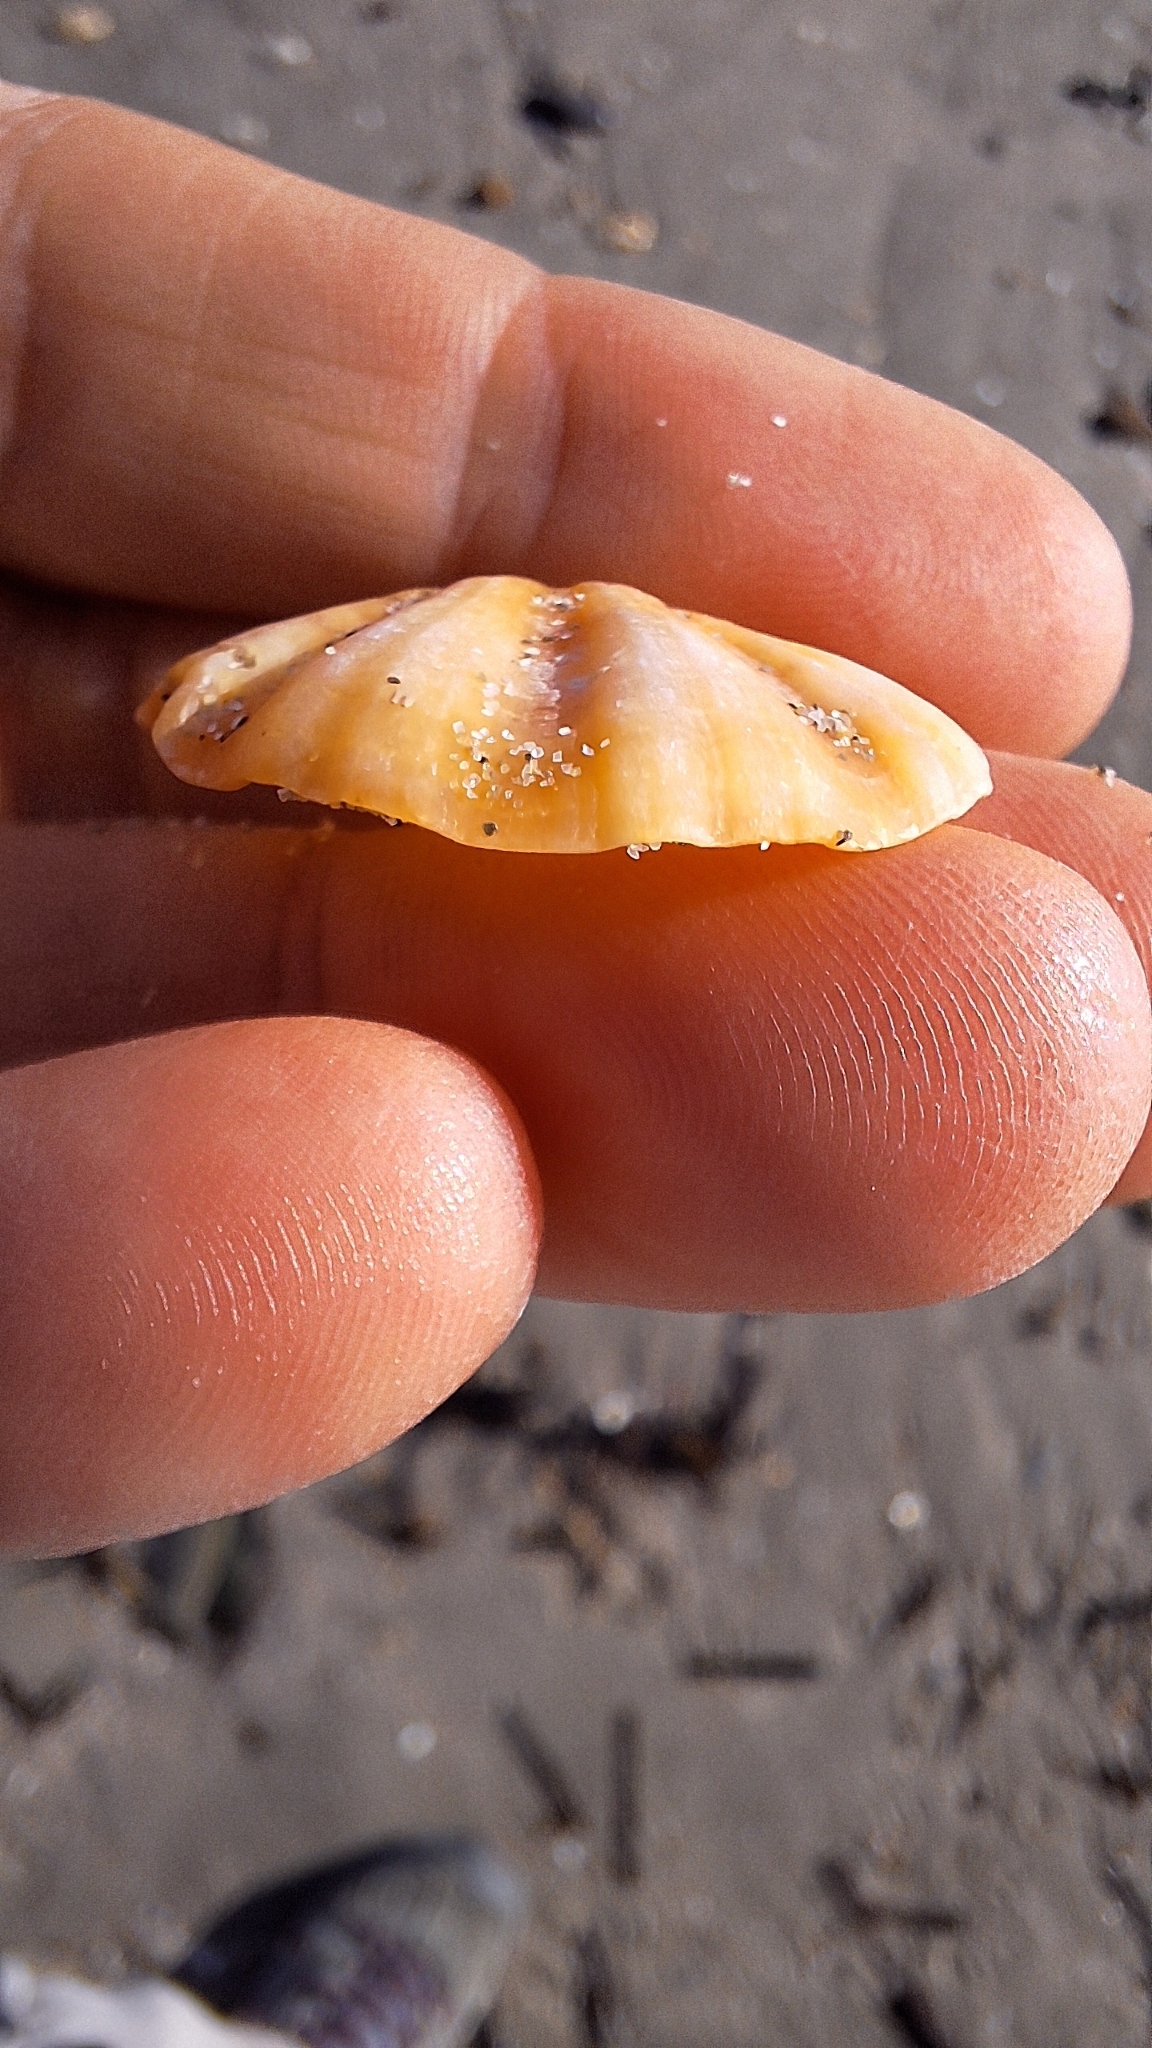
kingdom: Animalia
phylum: Mollusca
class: Bivalvia
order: Pectinida
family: Pectinidae
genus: Flexopecten
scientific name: Flexopecten flexuosus
